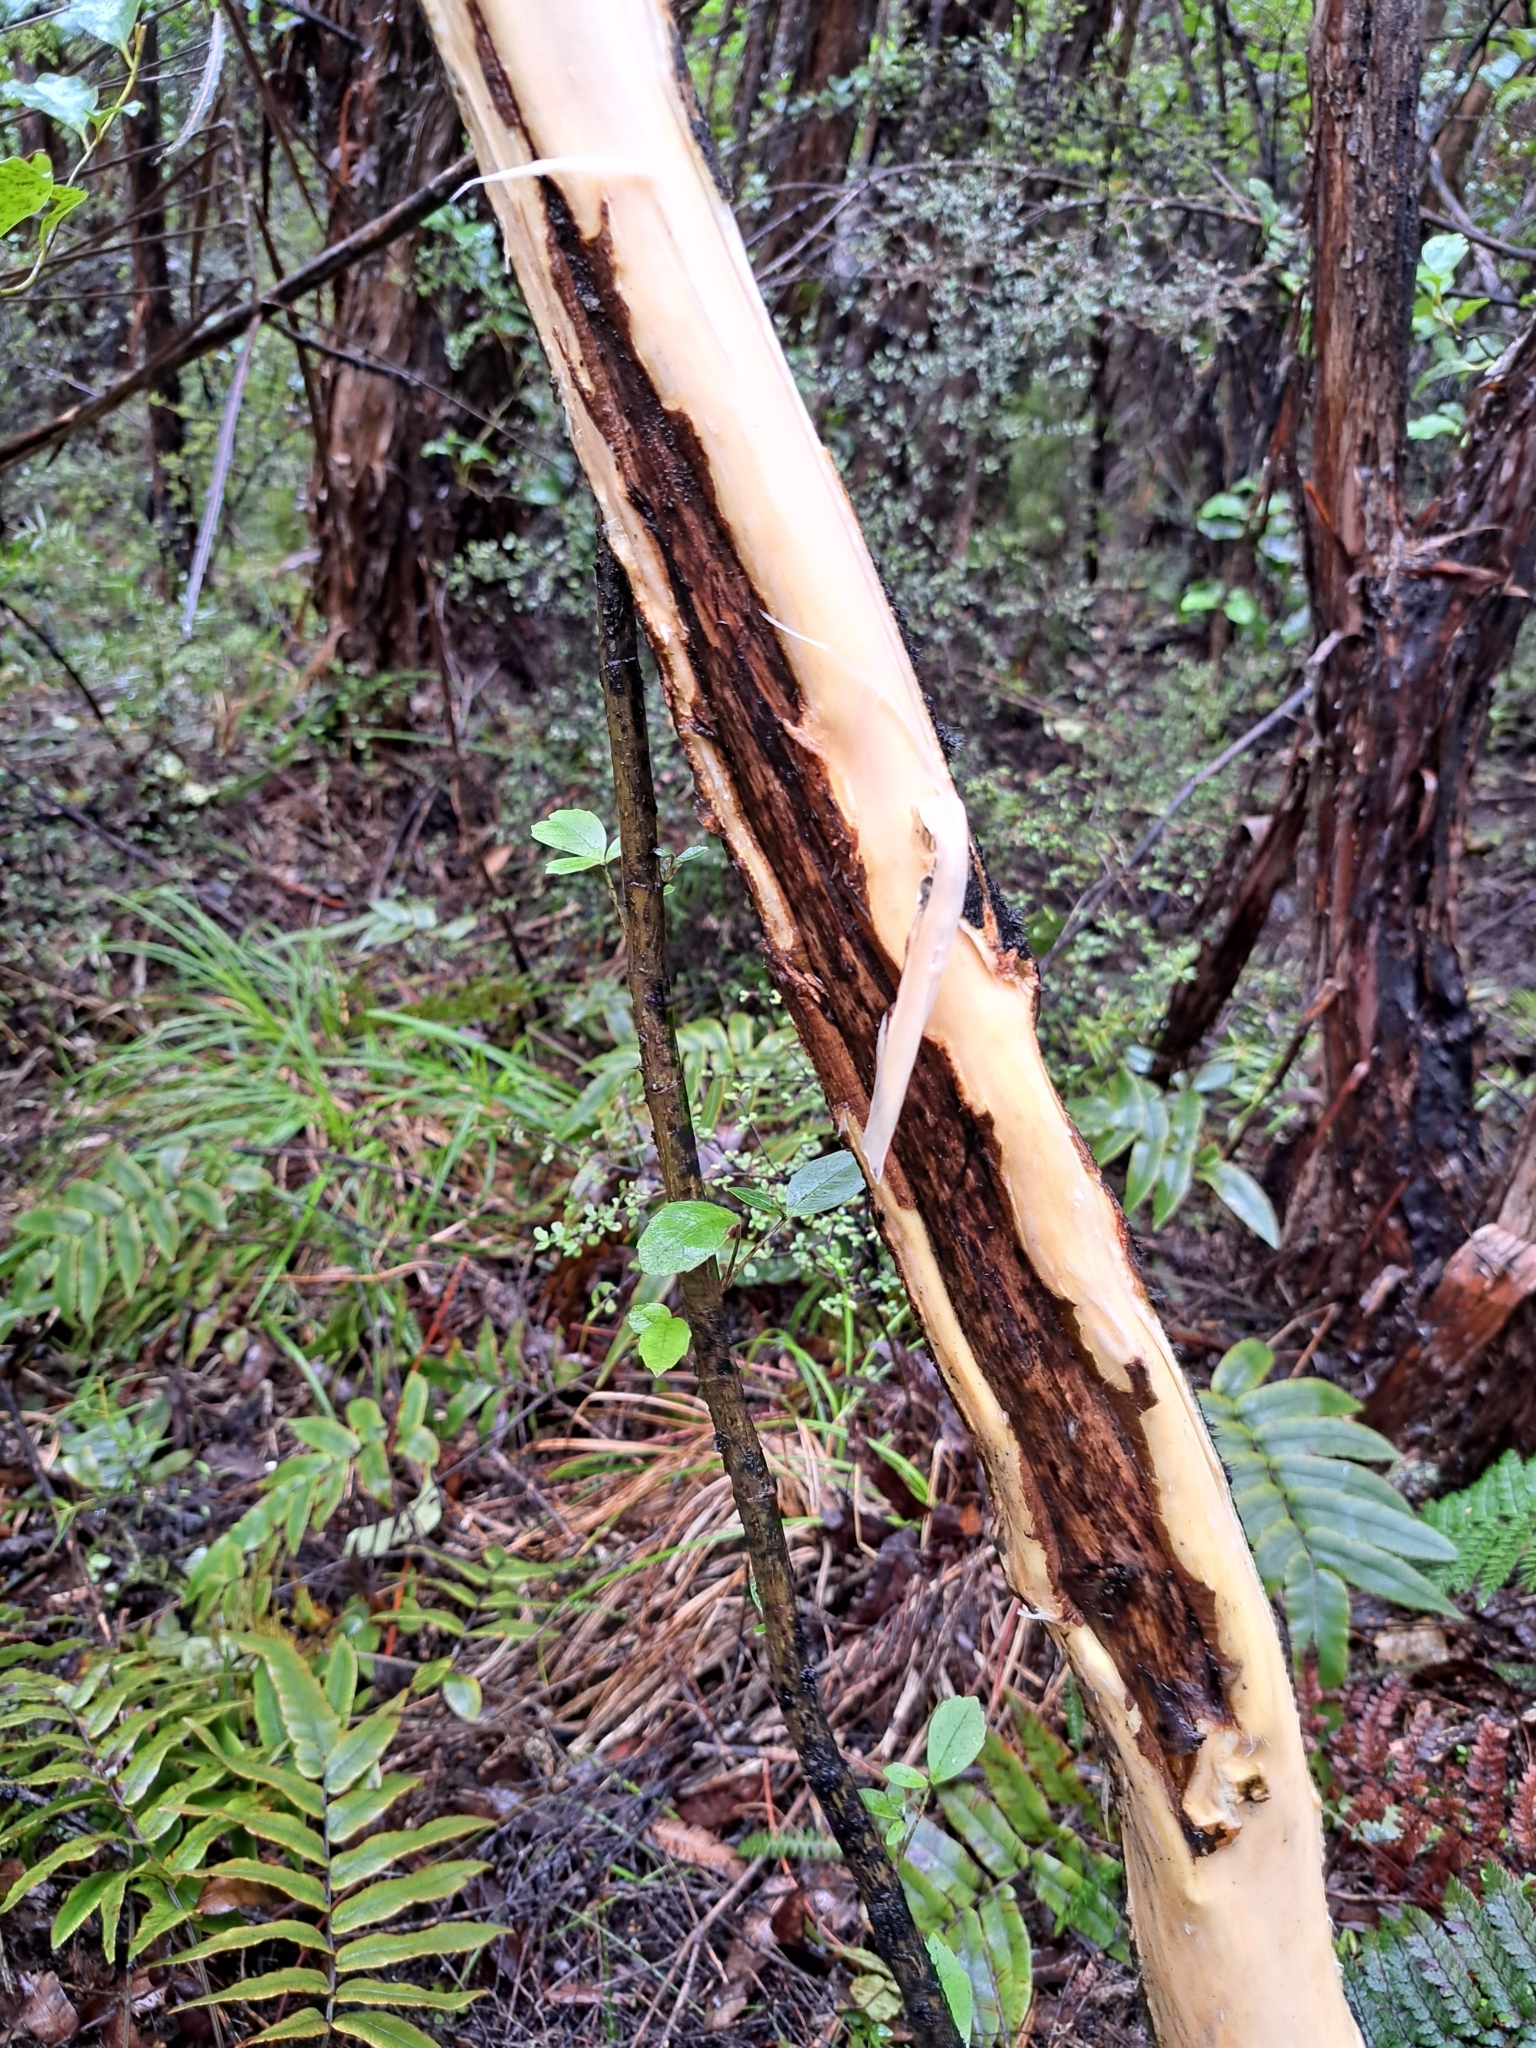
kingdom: Plantae
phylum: Tracheophyta
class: Magnoliopsida
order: Apiales
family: Araliaceae
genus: Neopanax
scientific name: Neopanax colensoi
